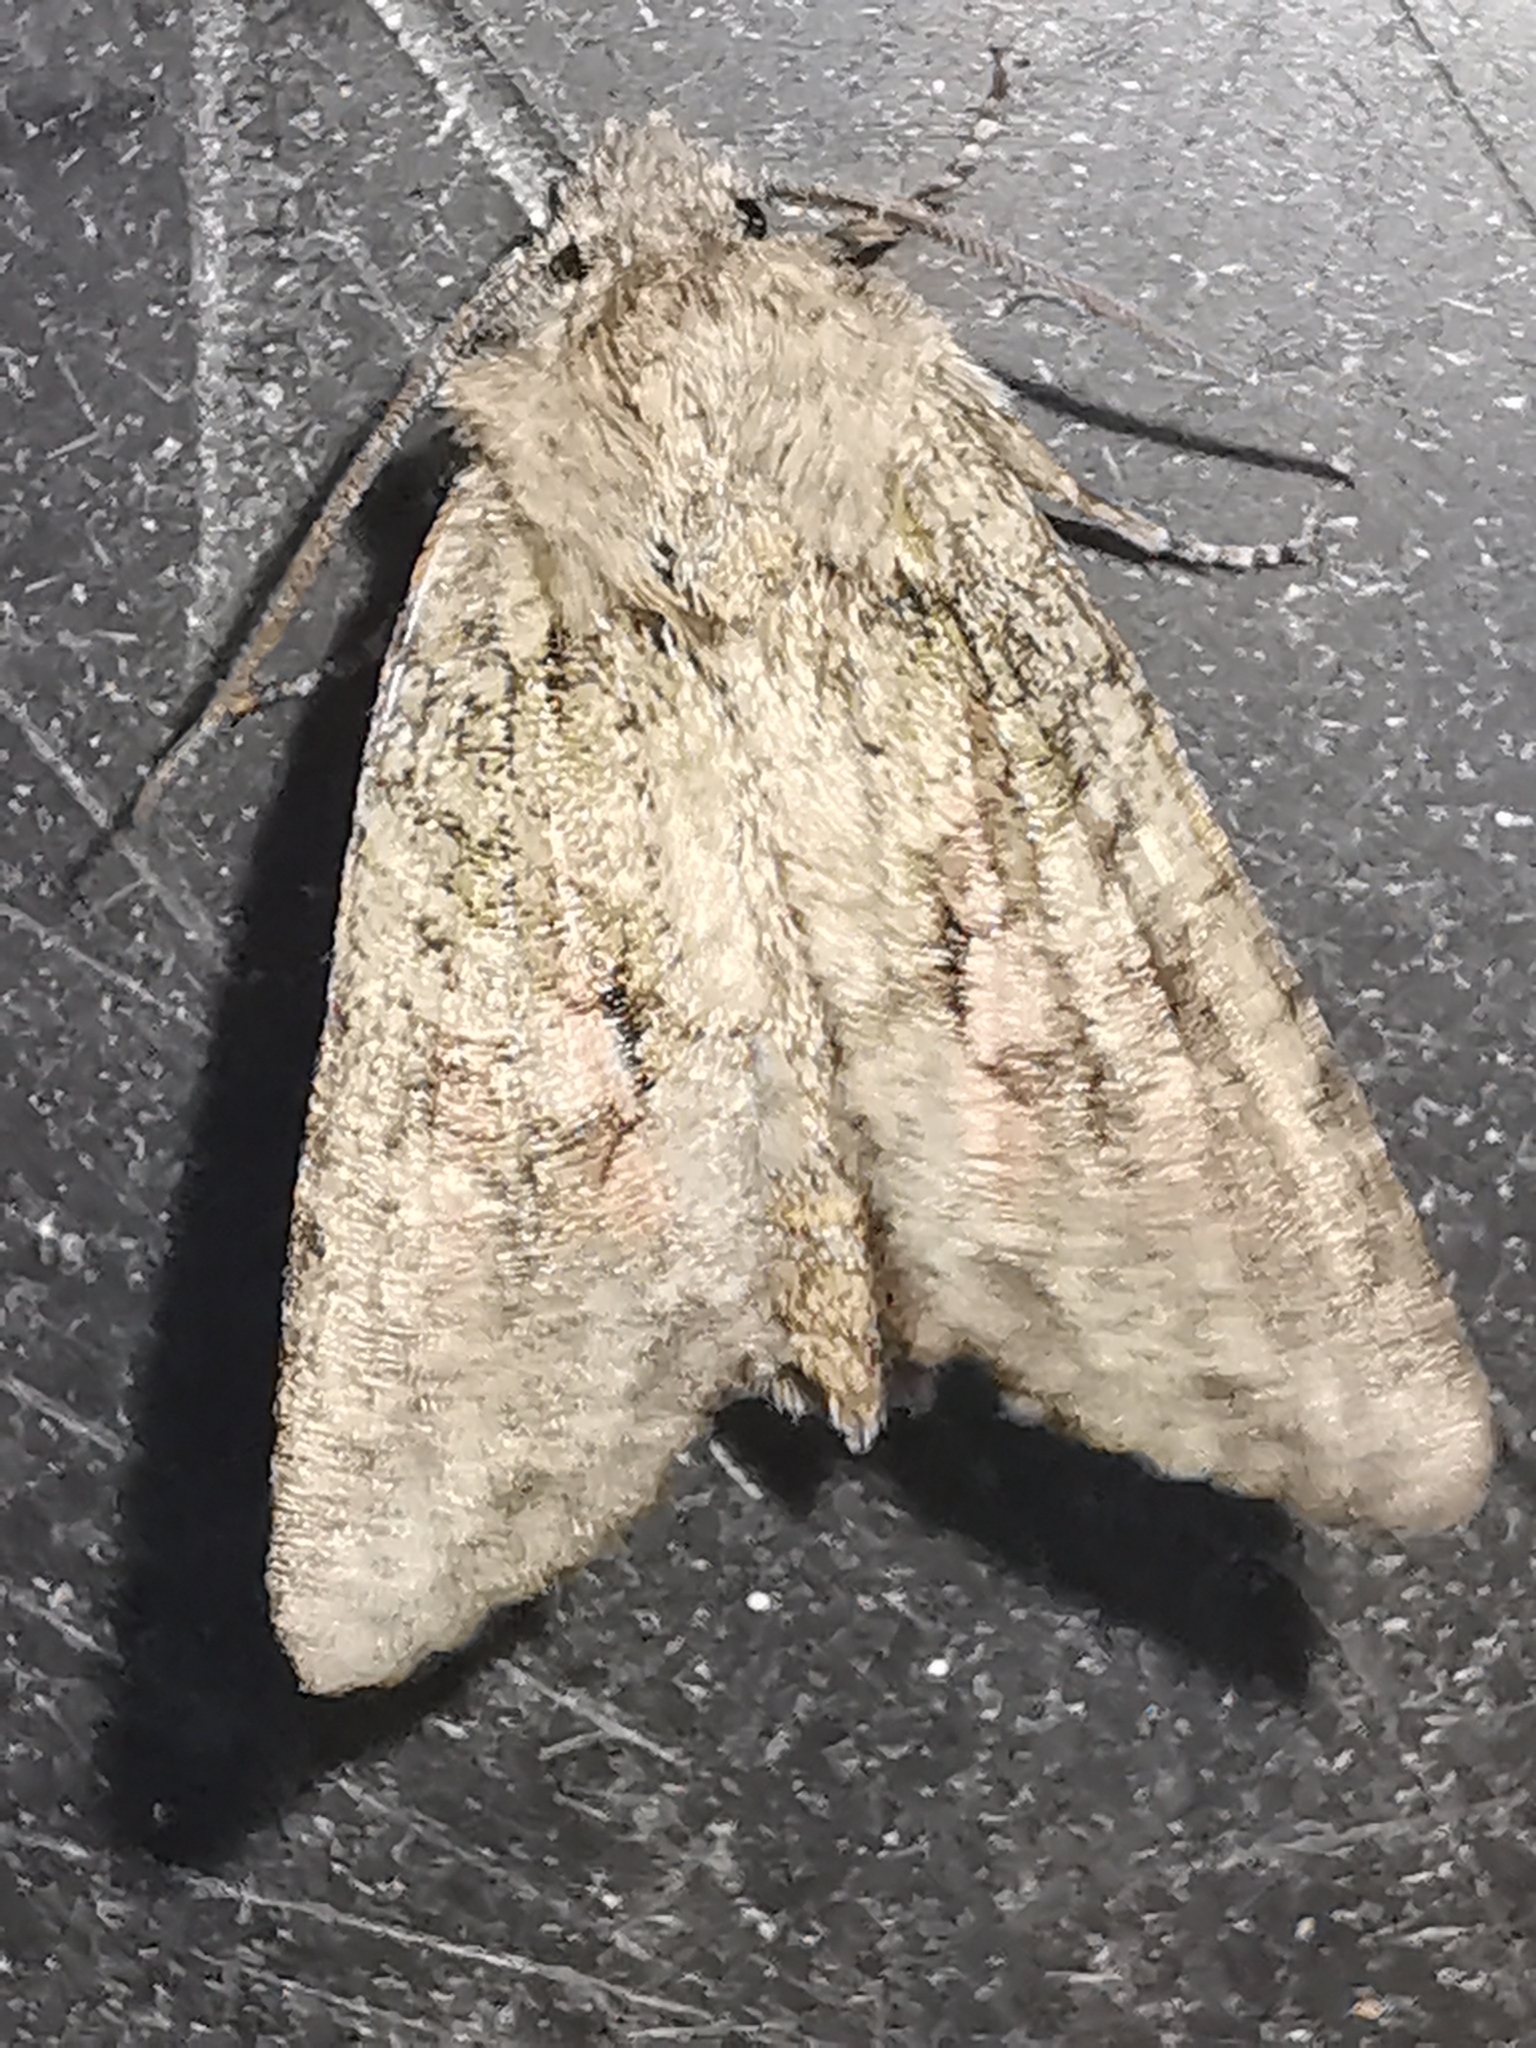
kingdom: Animalia
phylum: Arthropoda
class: Insecta
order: Lepidoptera
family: Noctuidae
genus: Dryobotodes
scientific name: Dryobotodes eremita
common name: Brindled green
